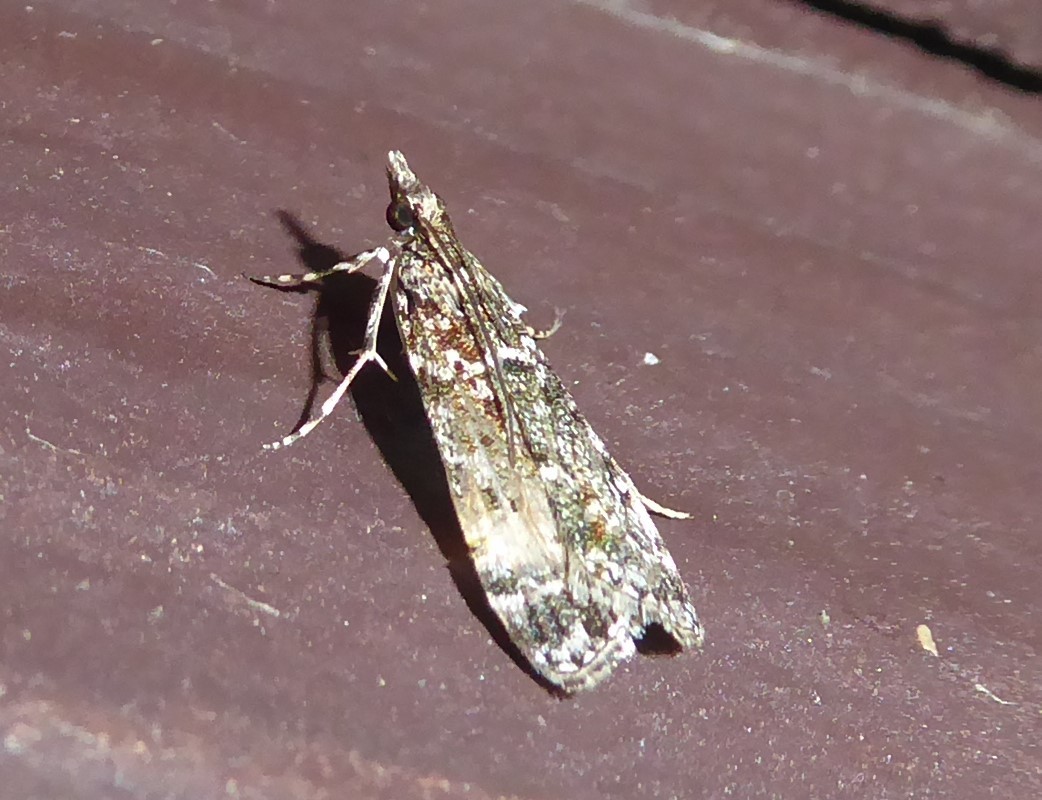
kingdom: Animalia
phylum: Arthropoda
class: Insecta
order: Lepidoptera
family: Crambidae
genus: Eudonia
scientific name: Eudonia philerga
